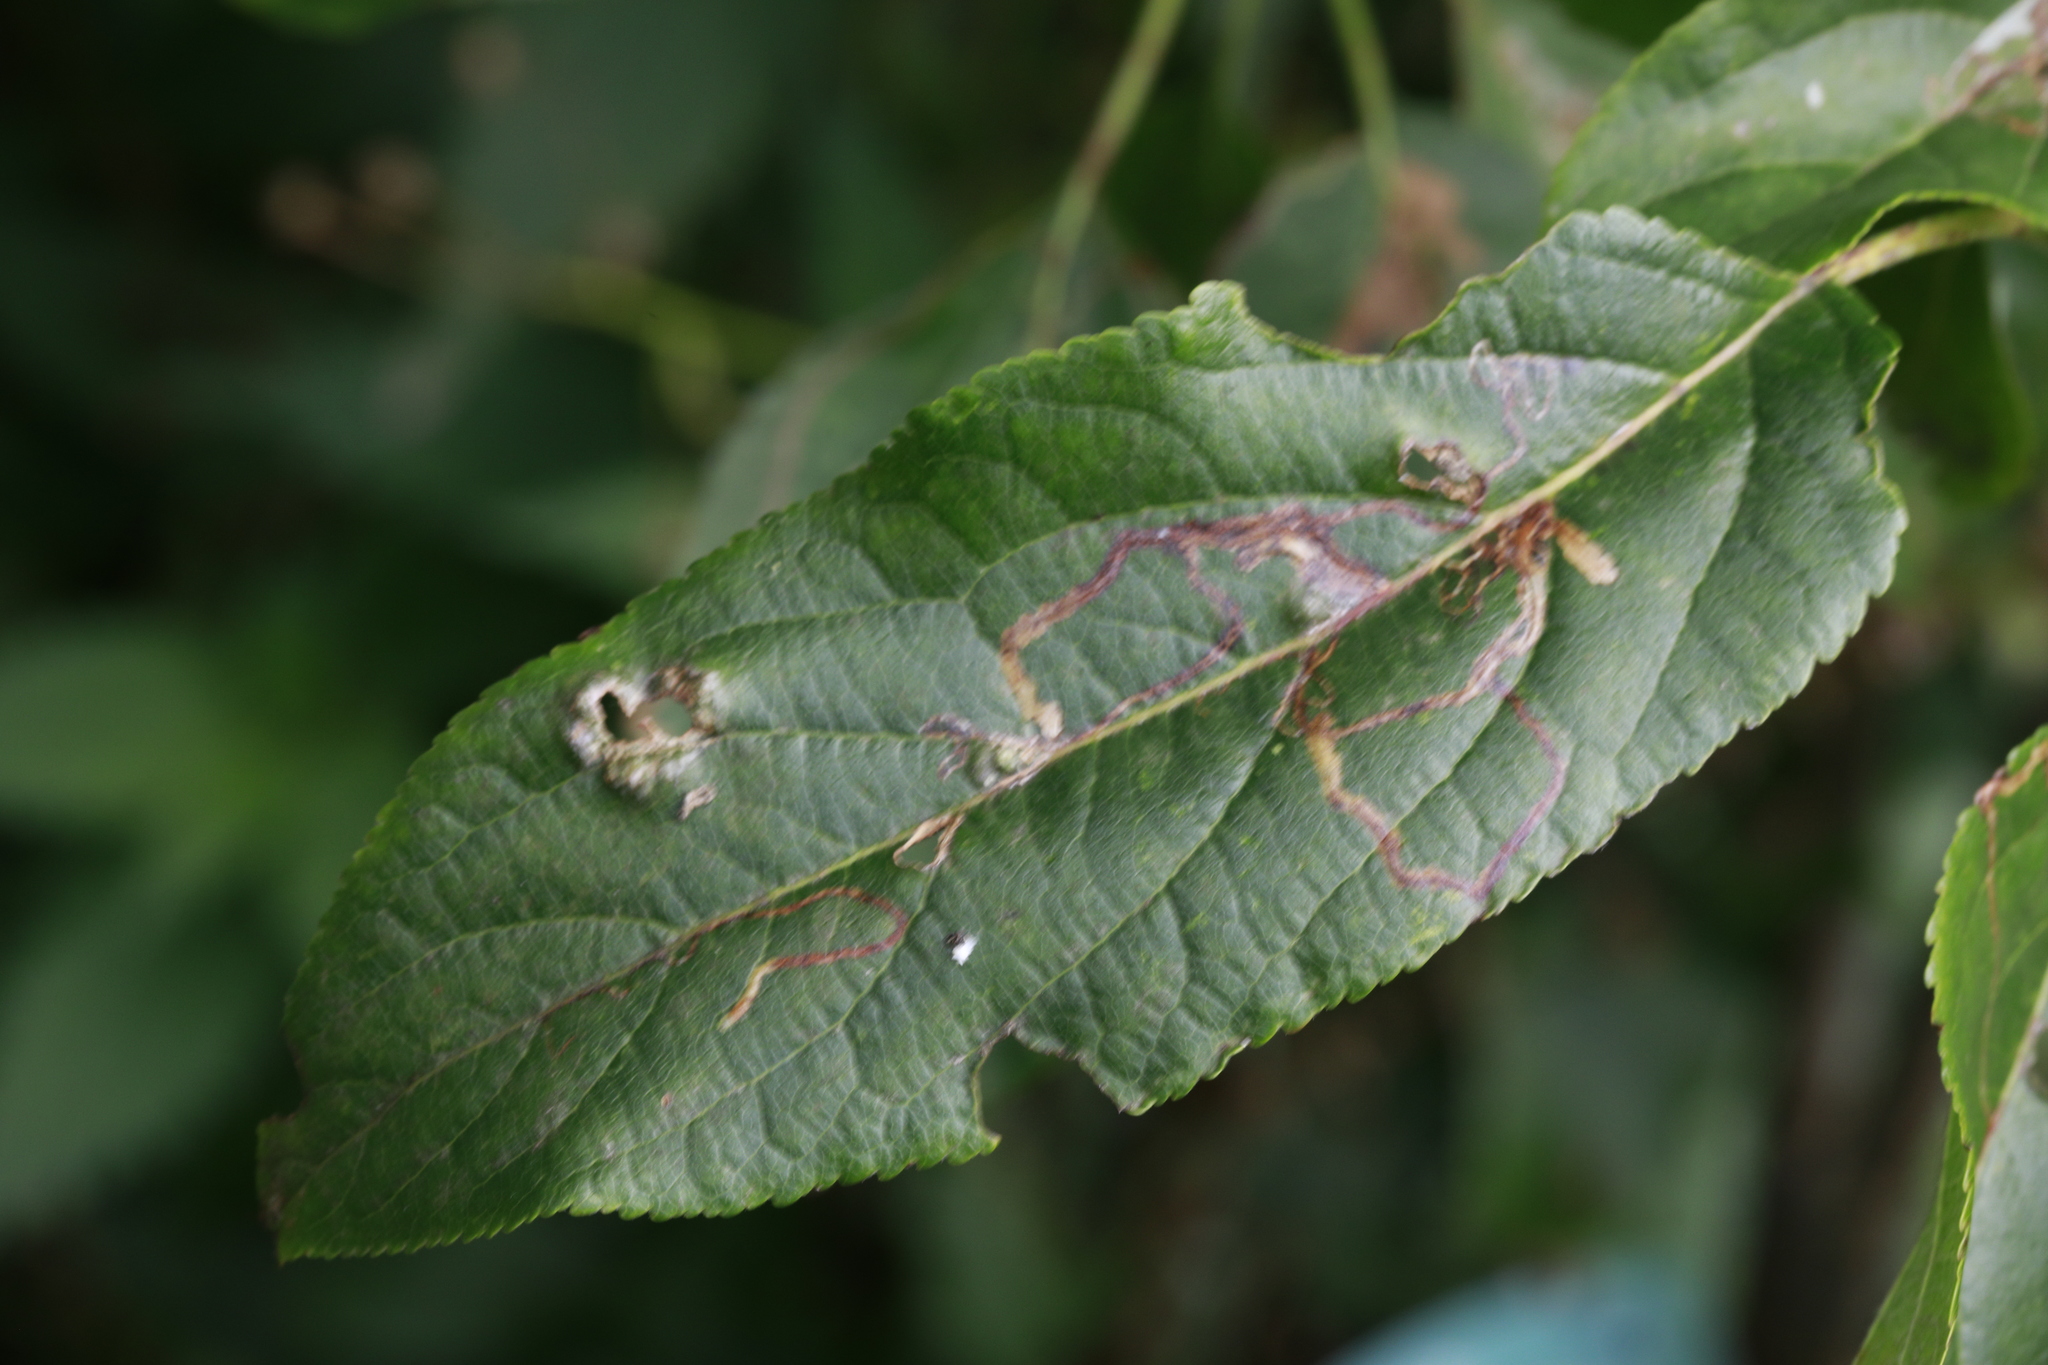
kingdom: Animalia
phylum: Arthropoda
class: Insecta
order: Lepidoptera
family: Lyonetiidae
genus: Lyonetia
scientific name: Lyonetia clerkella
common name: Apple leaf miner
